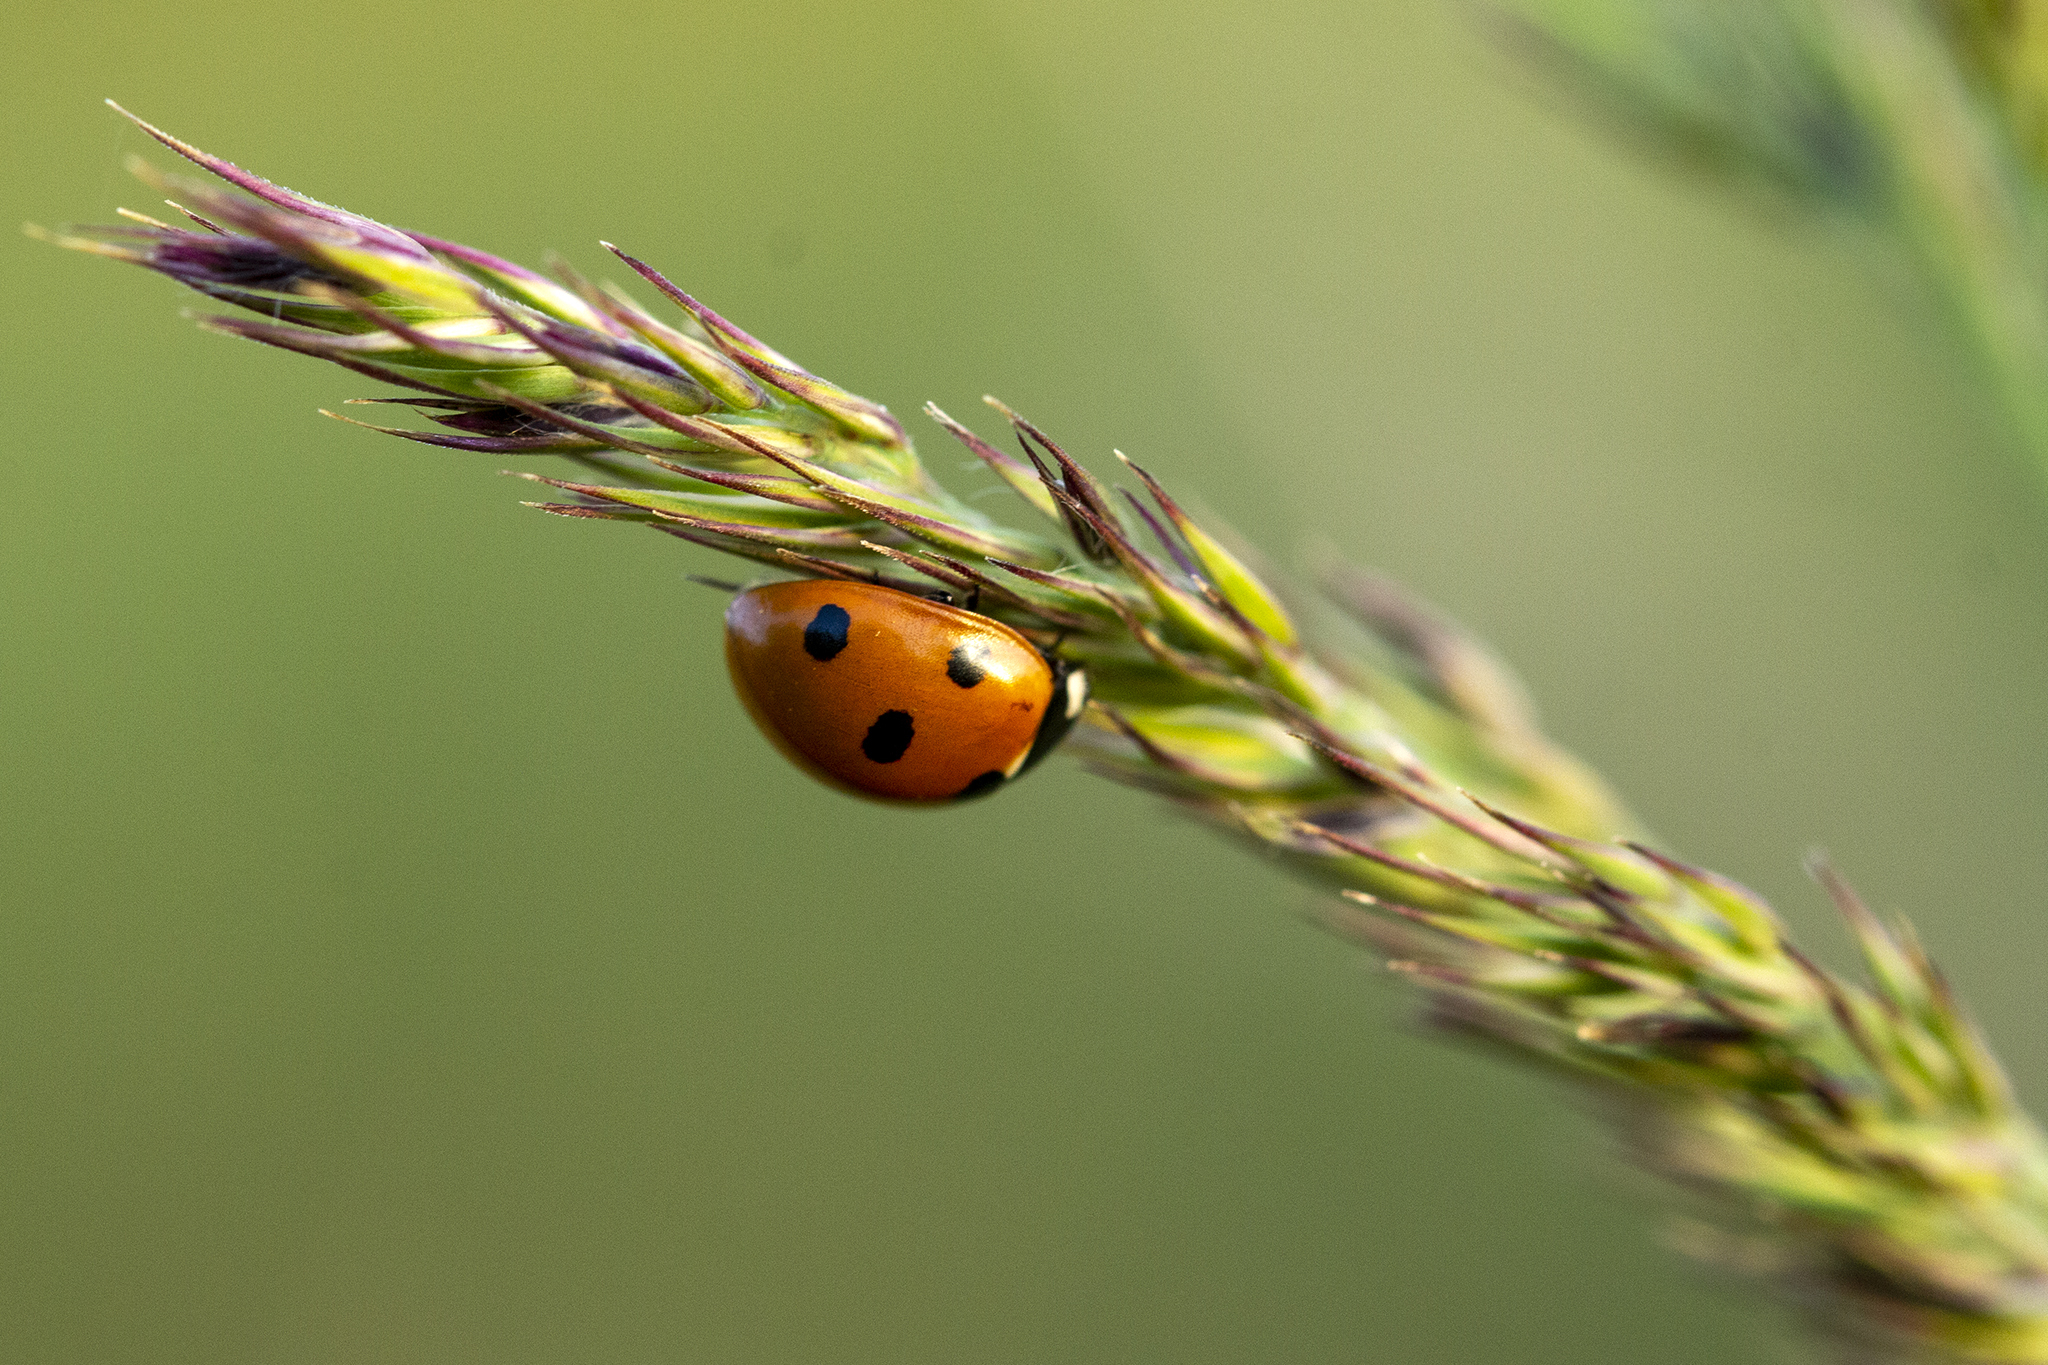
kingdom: Animalia
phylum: Arthropoda
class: Insecta
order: Coleoptera
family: Coccinellidae
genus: Coccinella
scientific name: Coccinella septempunctata
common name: Sevenspotted lady beetle
